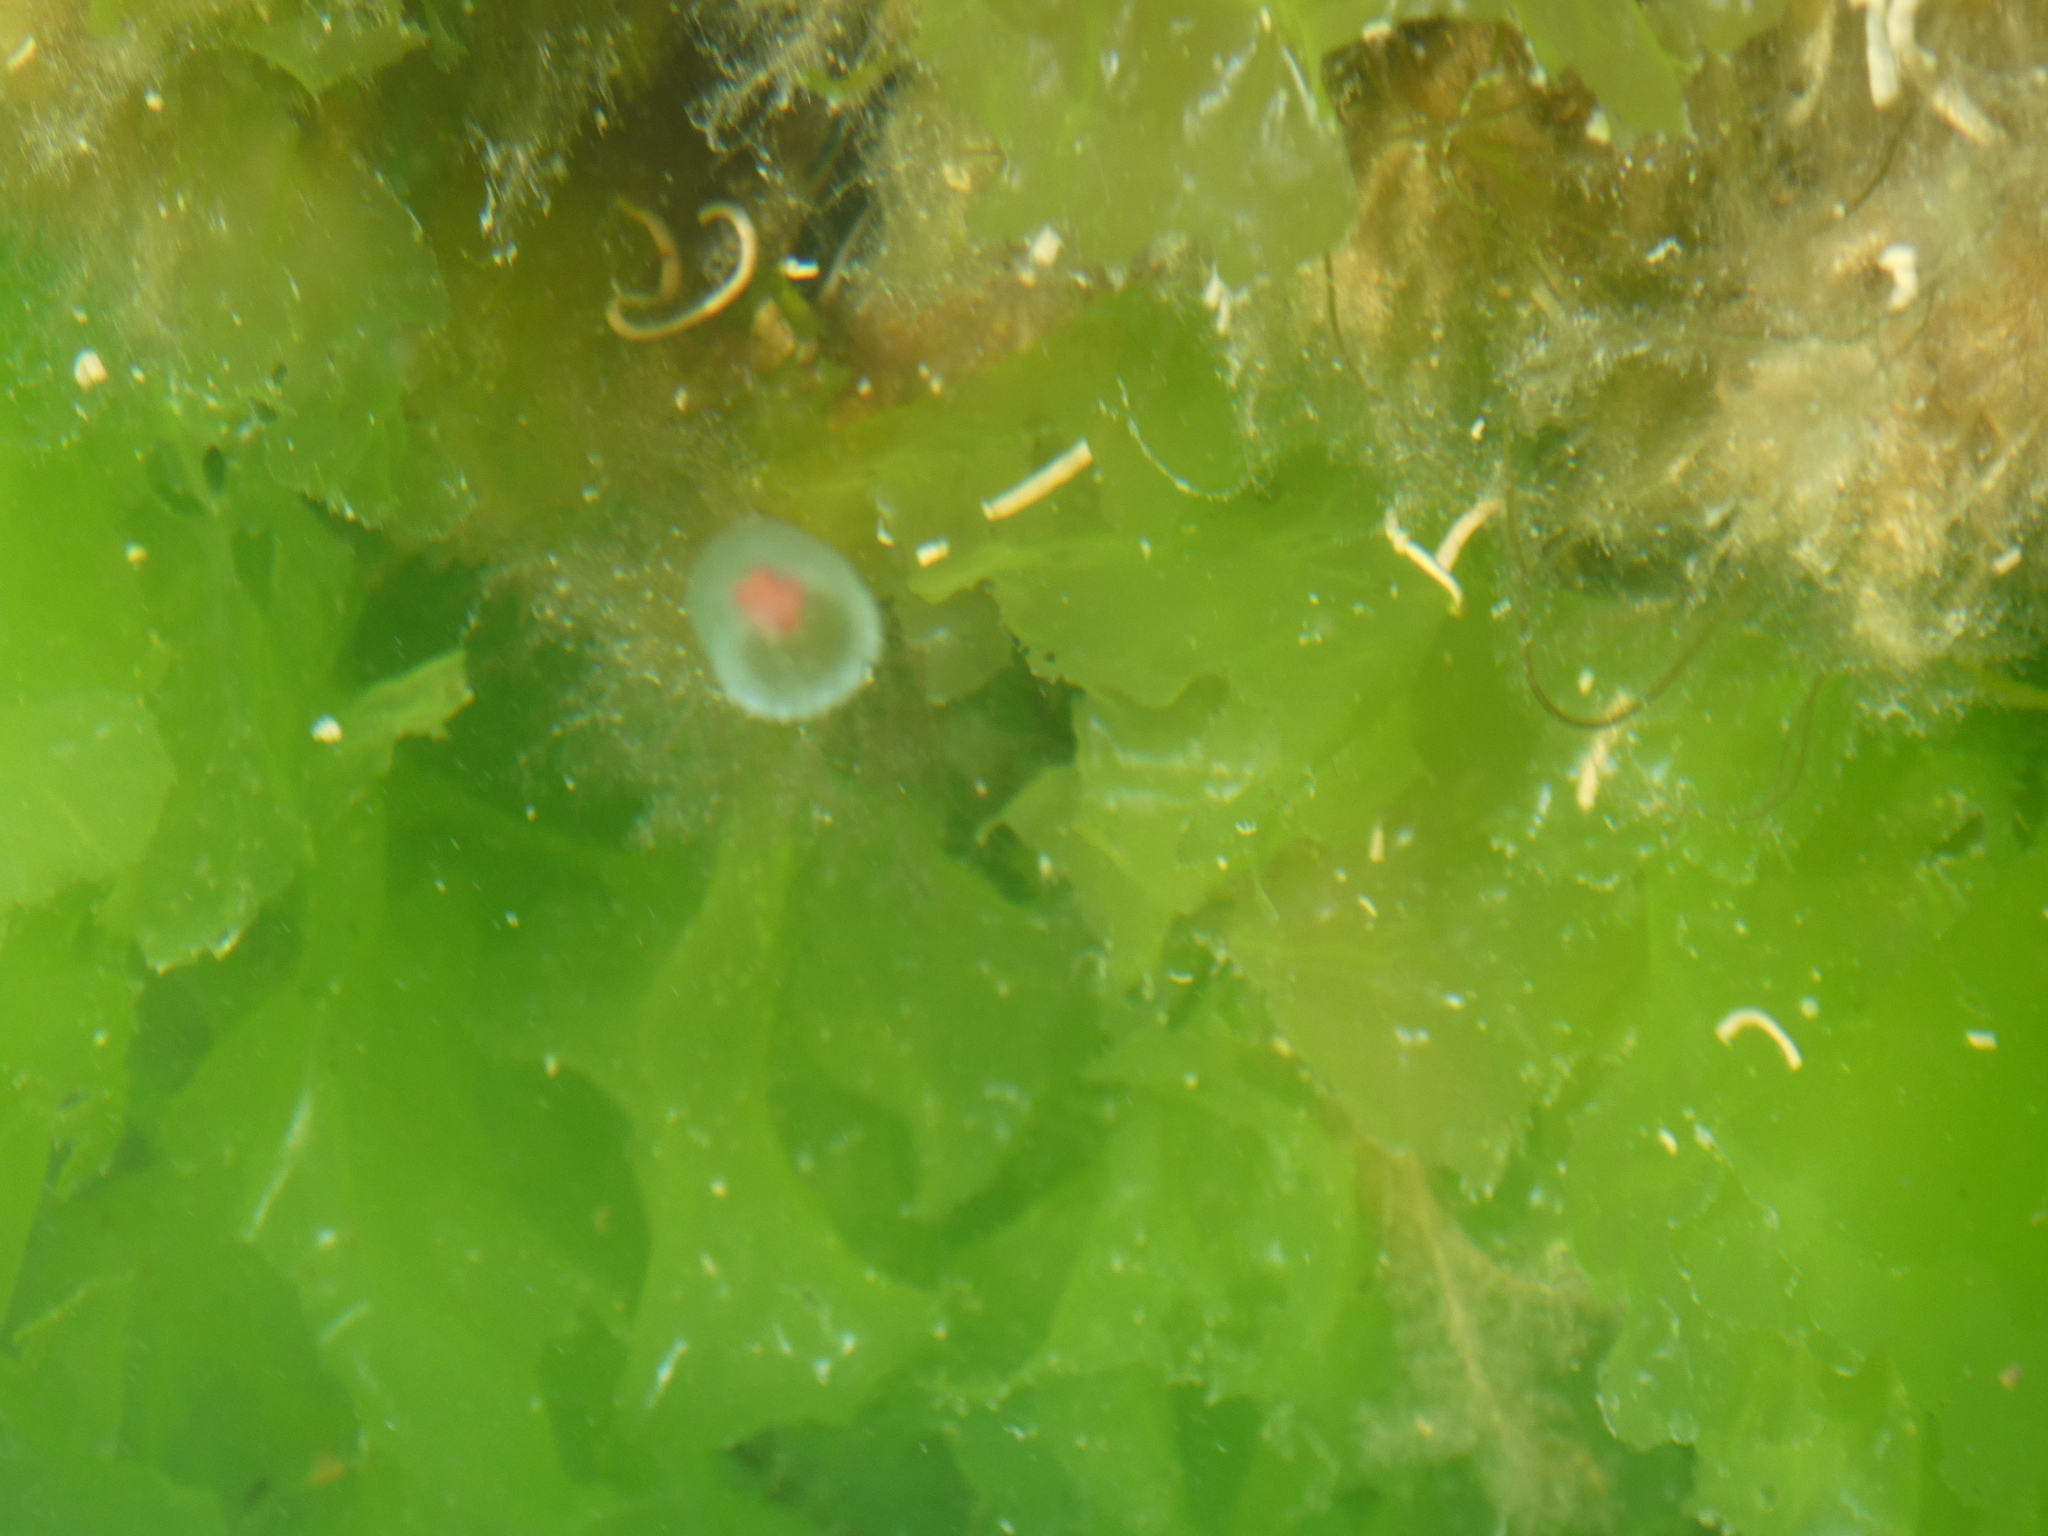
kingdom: Animalia
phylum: Cnidaria
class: Hydrozoa
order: Anthoathecata
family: Oceaniidae
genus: Turritopsis
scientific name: Turritopsis rubra
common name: Crimson jelly
